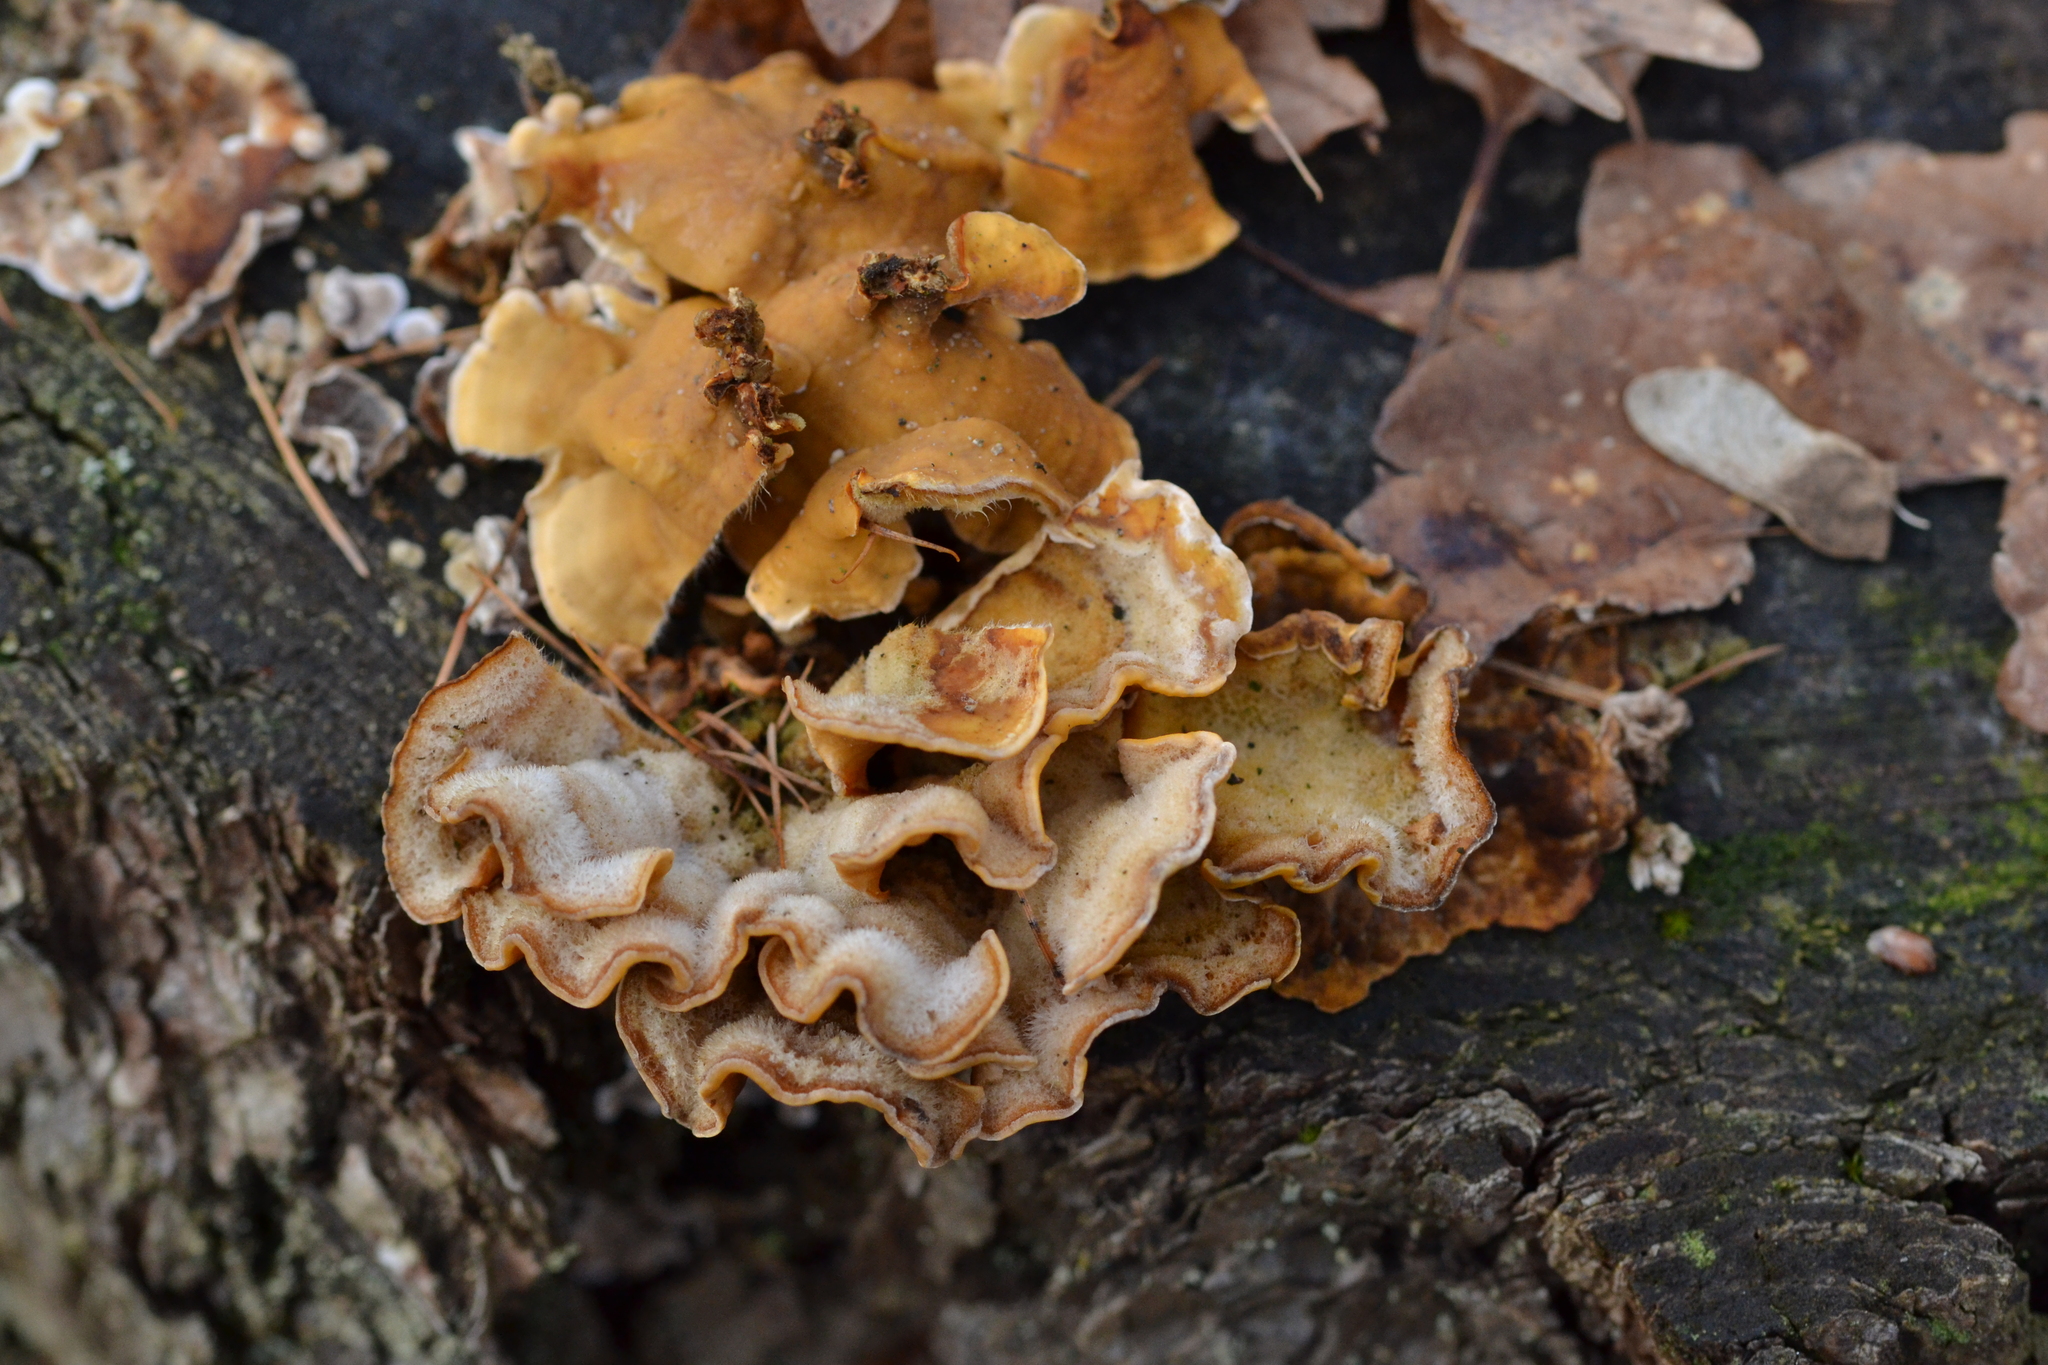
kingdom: Fungi
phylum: Basidiomycota
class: Agaricomycetes
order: Russulales
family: Stereaceae
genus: Stereum
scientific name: Stereum hirsutum
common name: Hairy curtain crust
